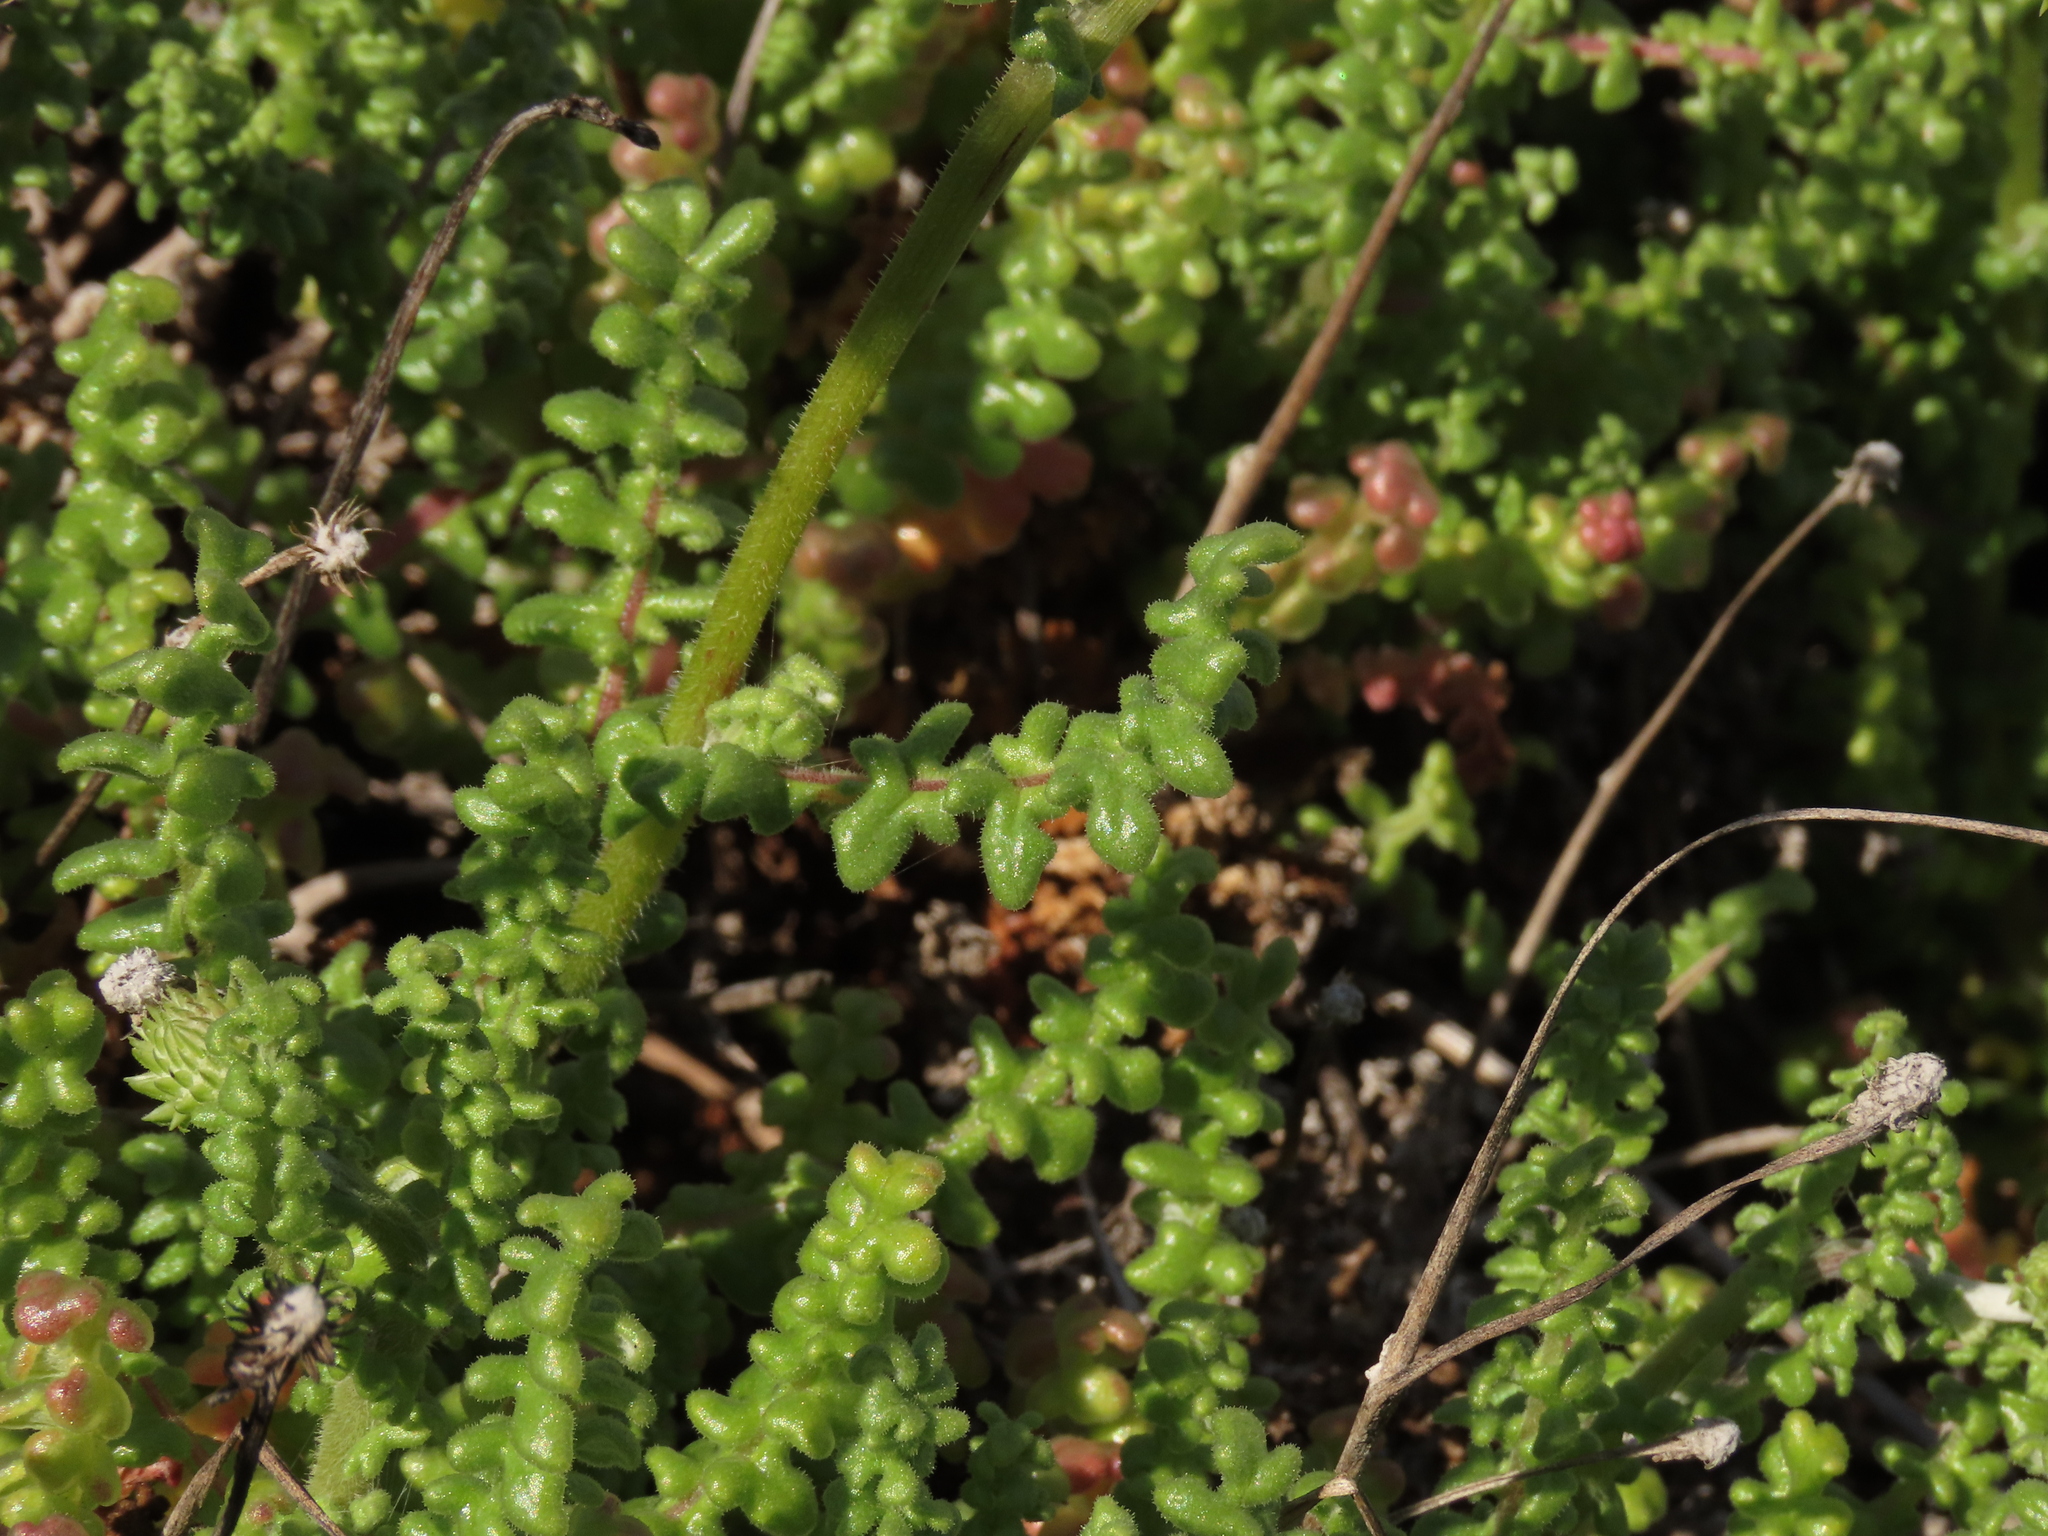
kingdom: Plantae
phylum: Tracheophyta
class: Magnoliopsida
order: Asterales
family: Asteraceae
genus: Polyachyrus
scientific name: Polyachyrus fuscus
